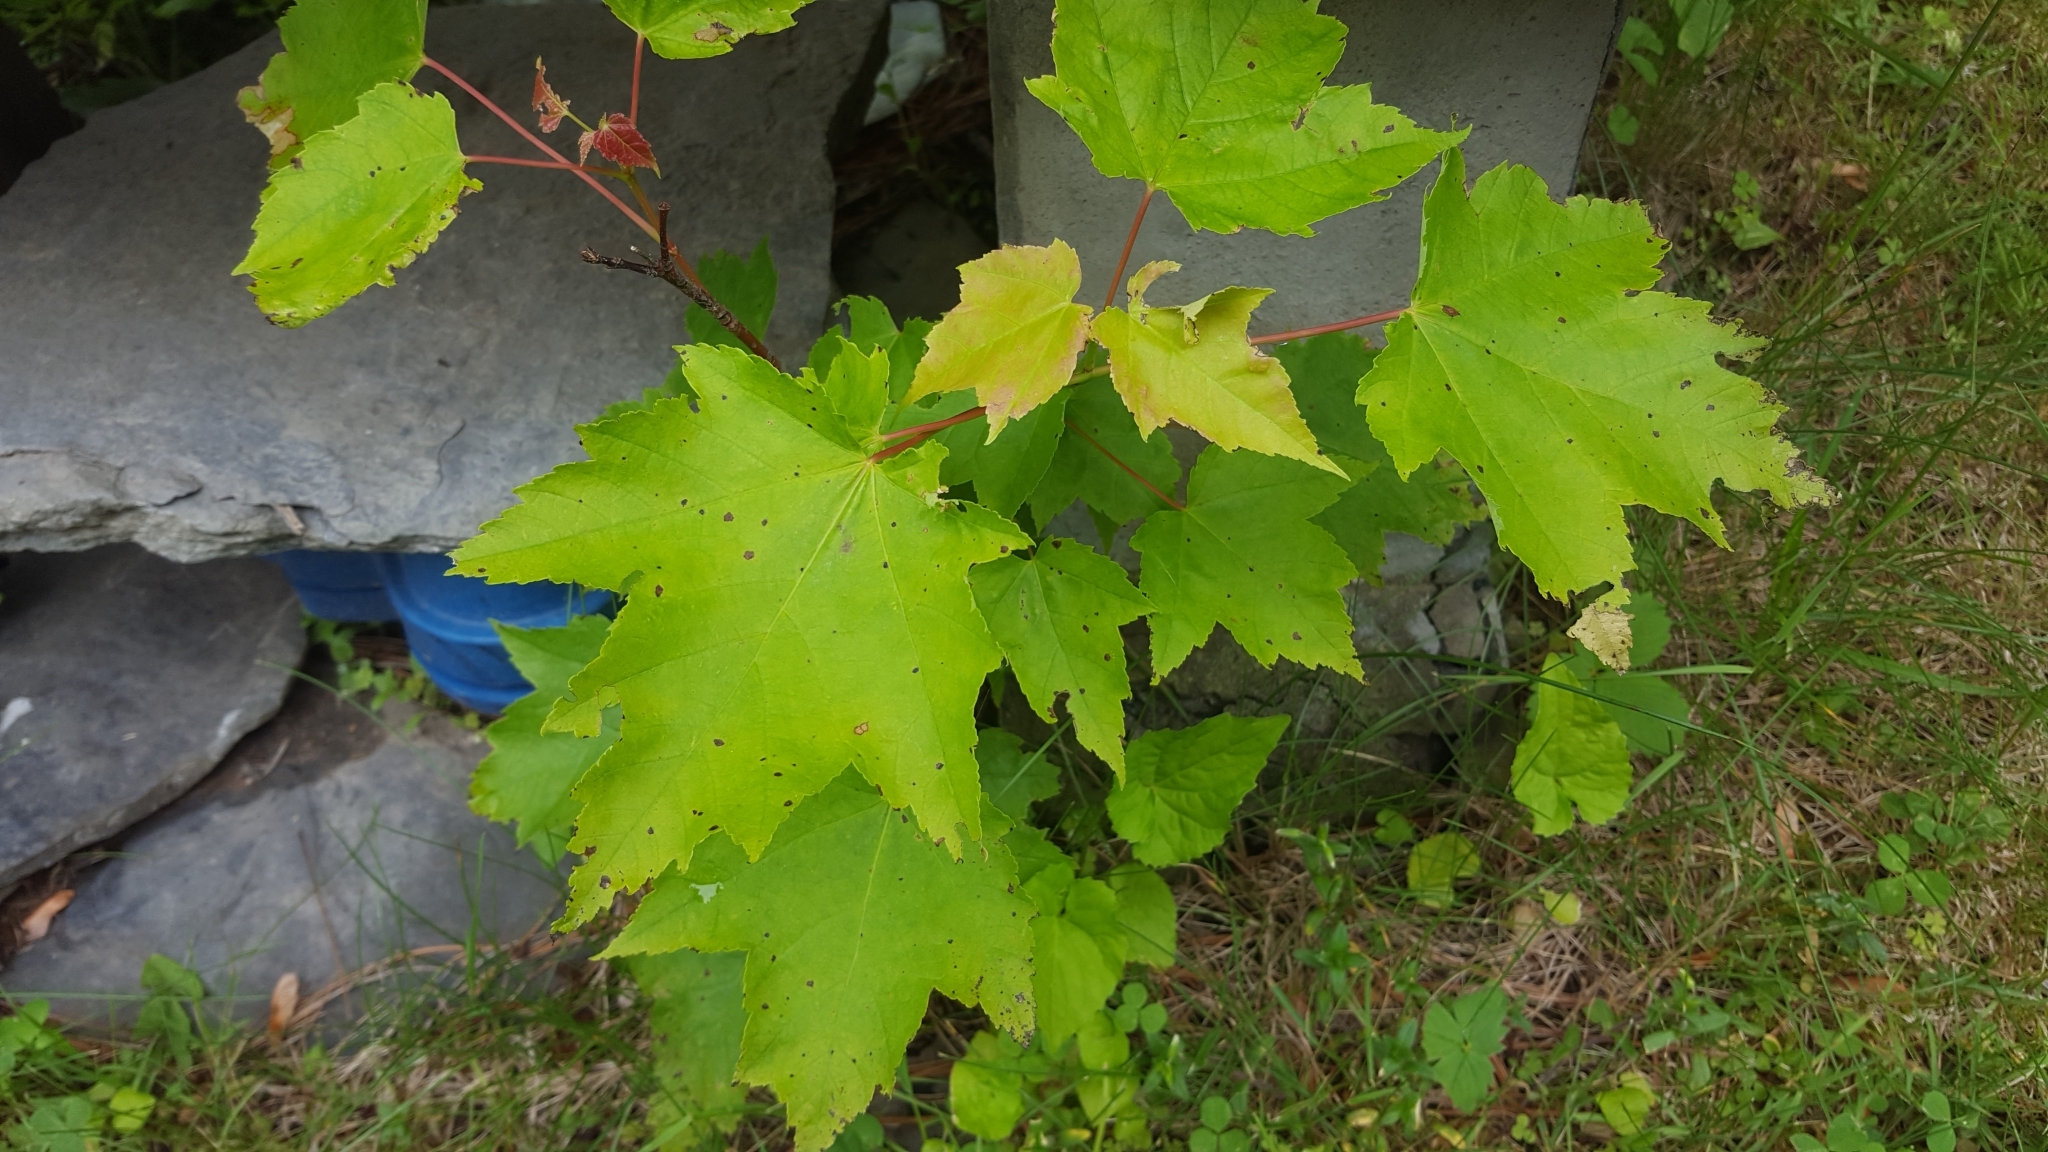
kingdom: Plantae
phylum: Tracheophyta
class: Magnoliopsida
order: Sapindales
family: Sapindaceae
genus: Acer
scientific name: Acer rubrum
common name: Red maple
